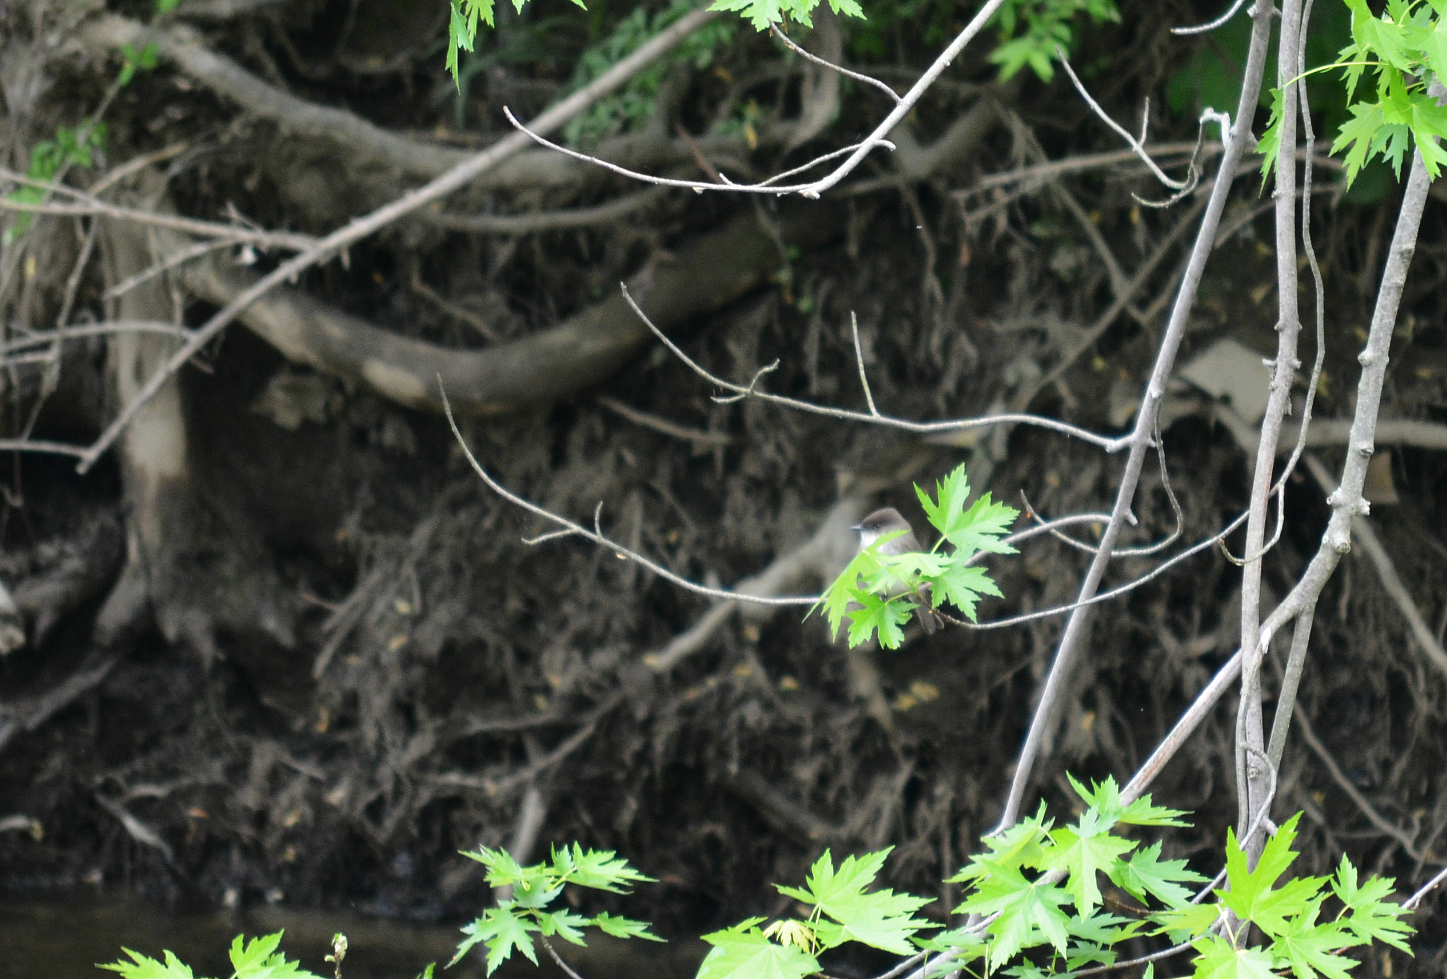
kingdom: Animalia
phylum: Chordata
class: Aves
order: Passeriformes
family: Tyrannidae
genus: Sayornis
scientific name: Sayornis phoebe
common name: Eastern phoebe
